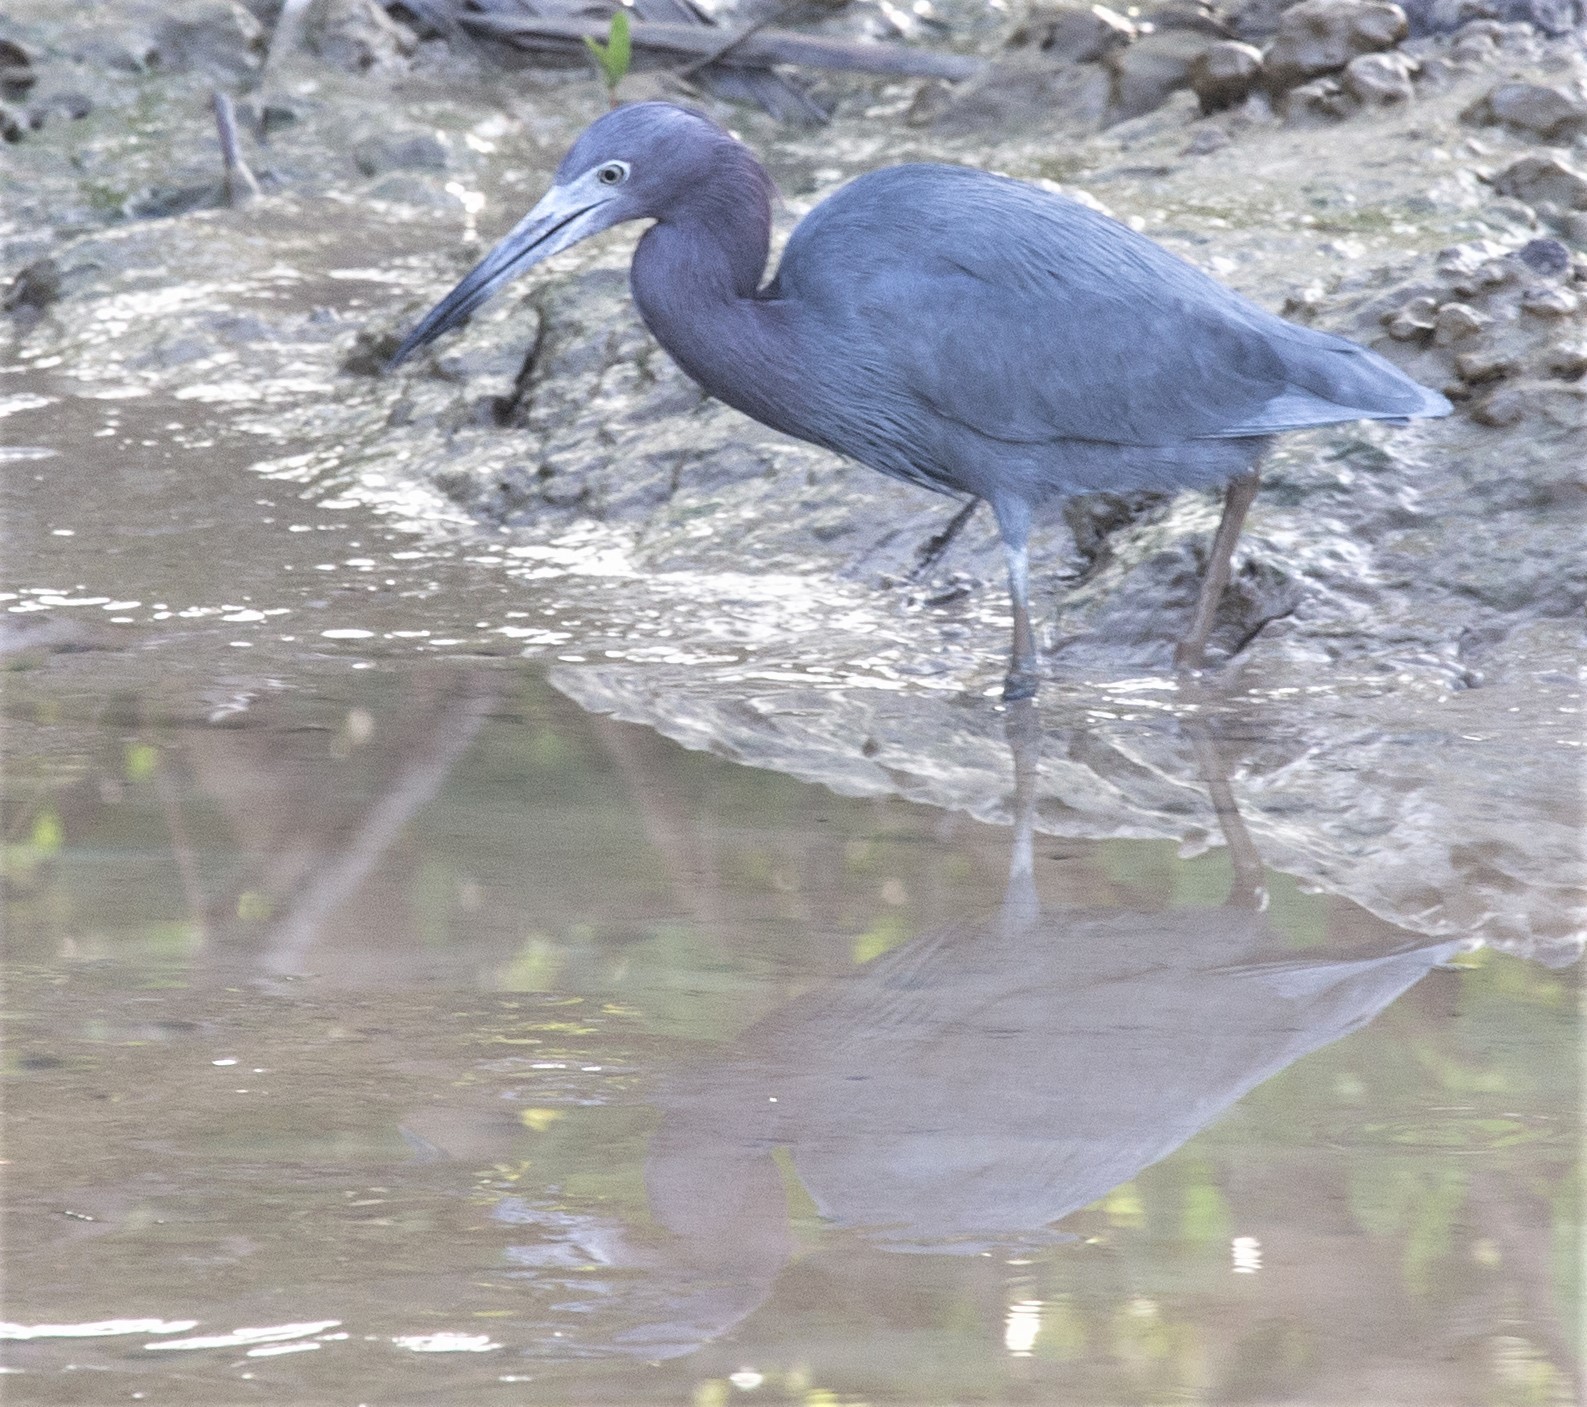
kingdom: Animalia
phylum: Chordata
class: Aves
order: Pelecaniformes
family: Ardeidae
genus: Egretta
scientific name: Egretta caerulea
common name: Little blue heron
